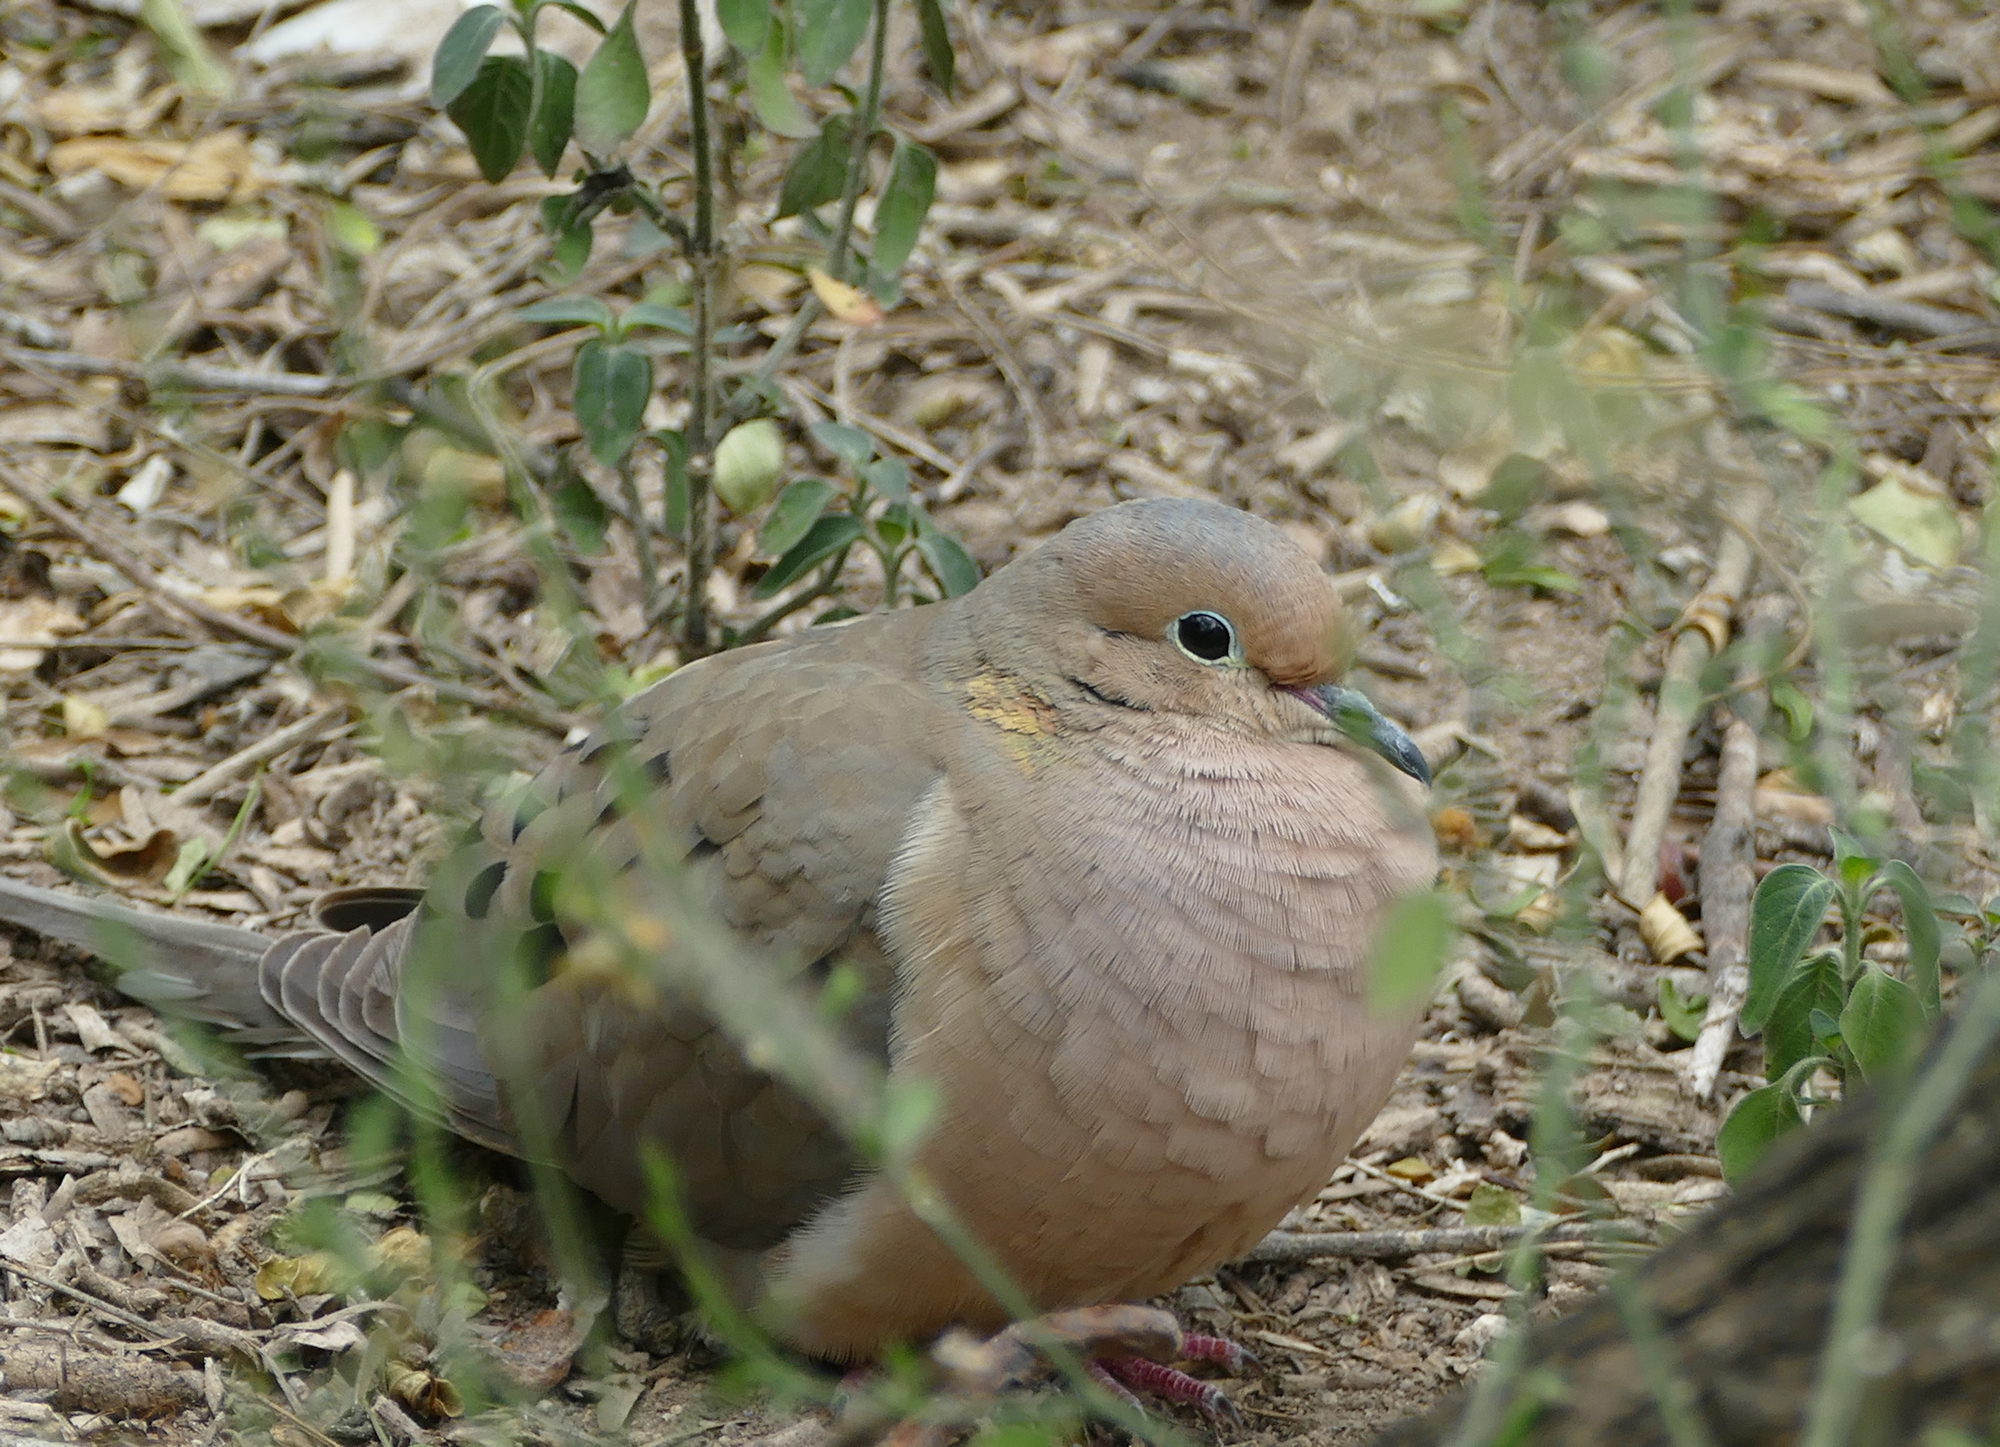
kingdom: Animalia
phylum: Chordata
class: Aves
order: Columbiformes
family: Columbidae
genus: Zenaida
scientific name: Zenaida macroura
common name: Mourning dove
